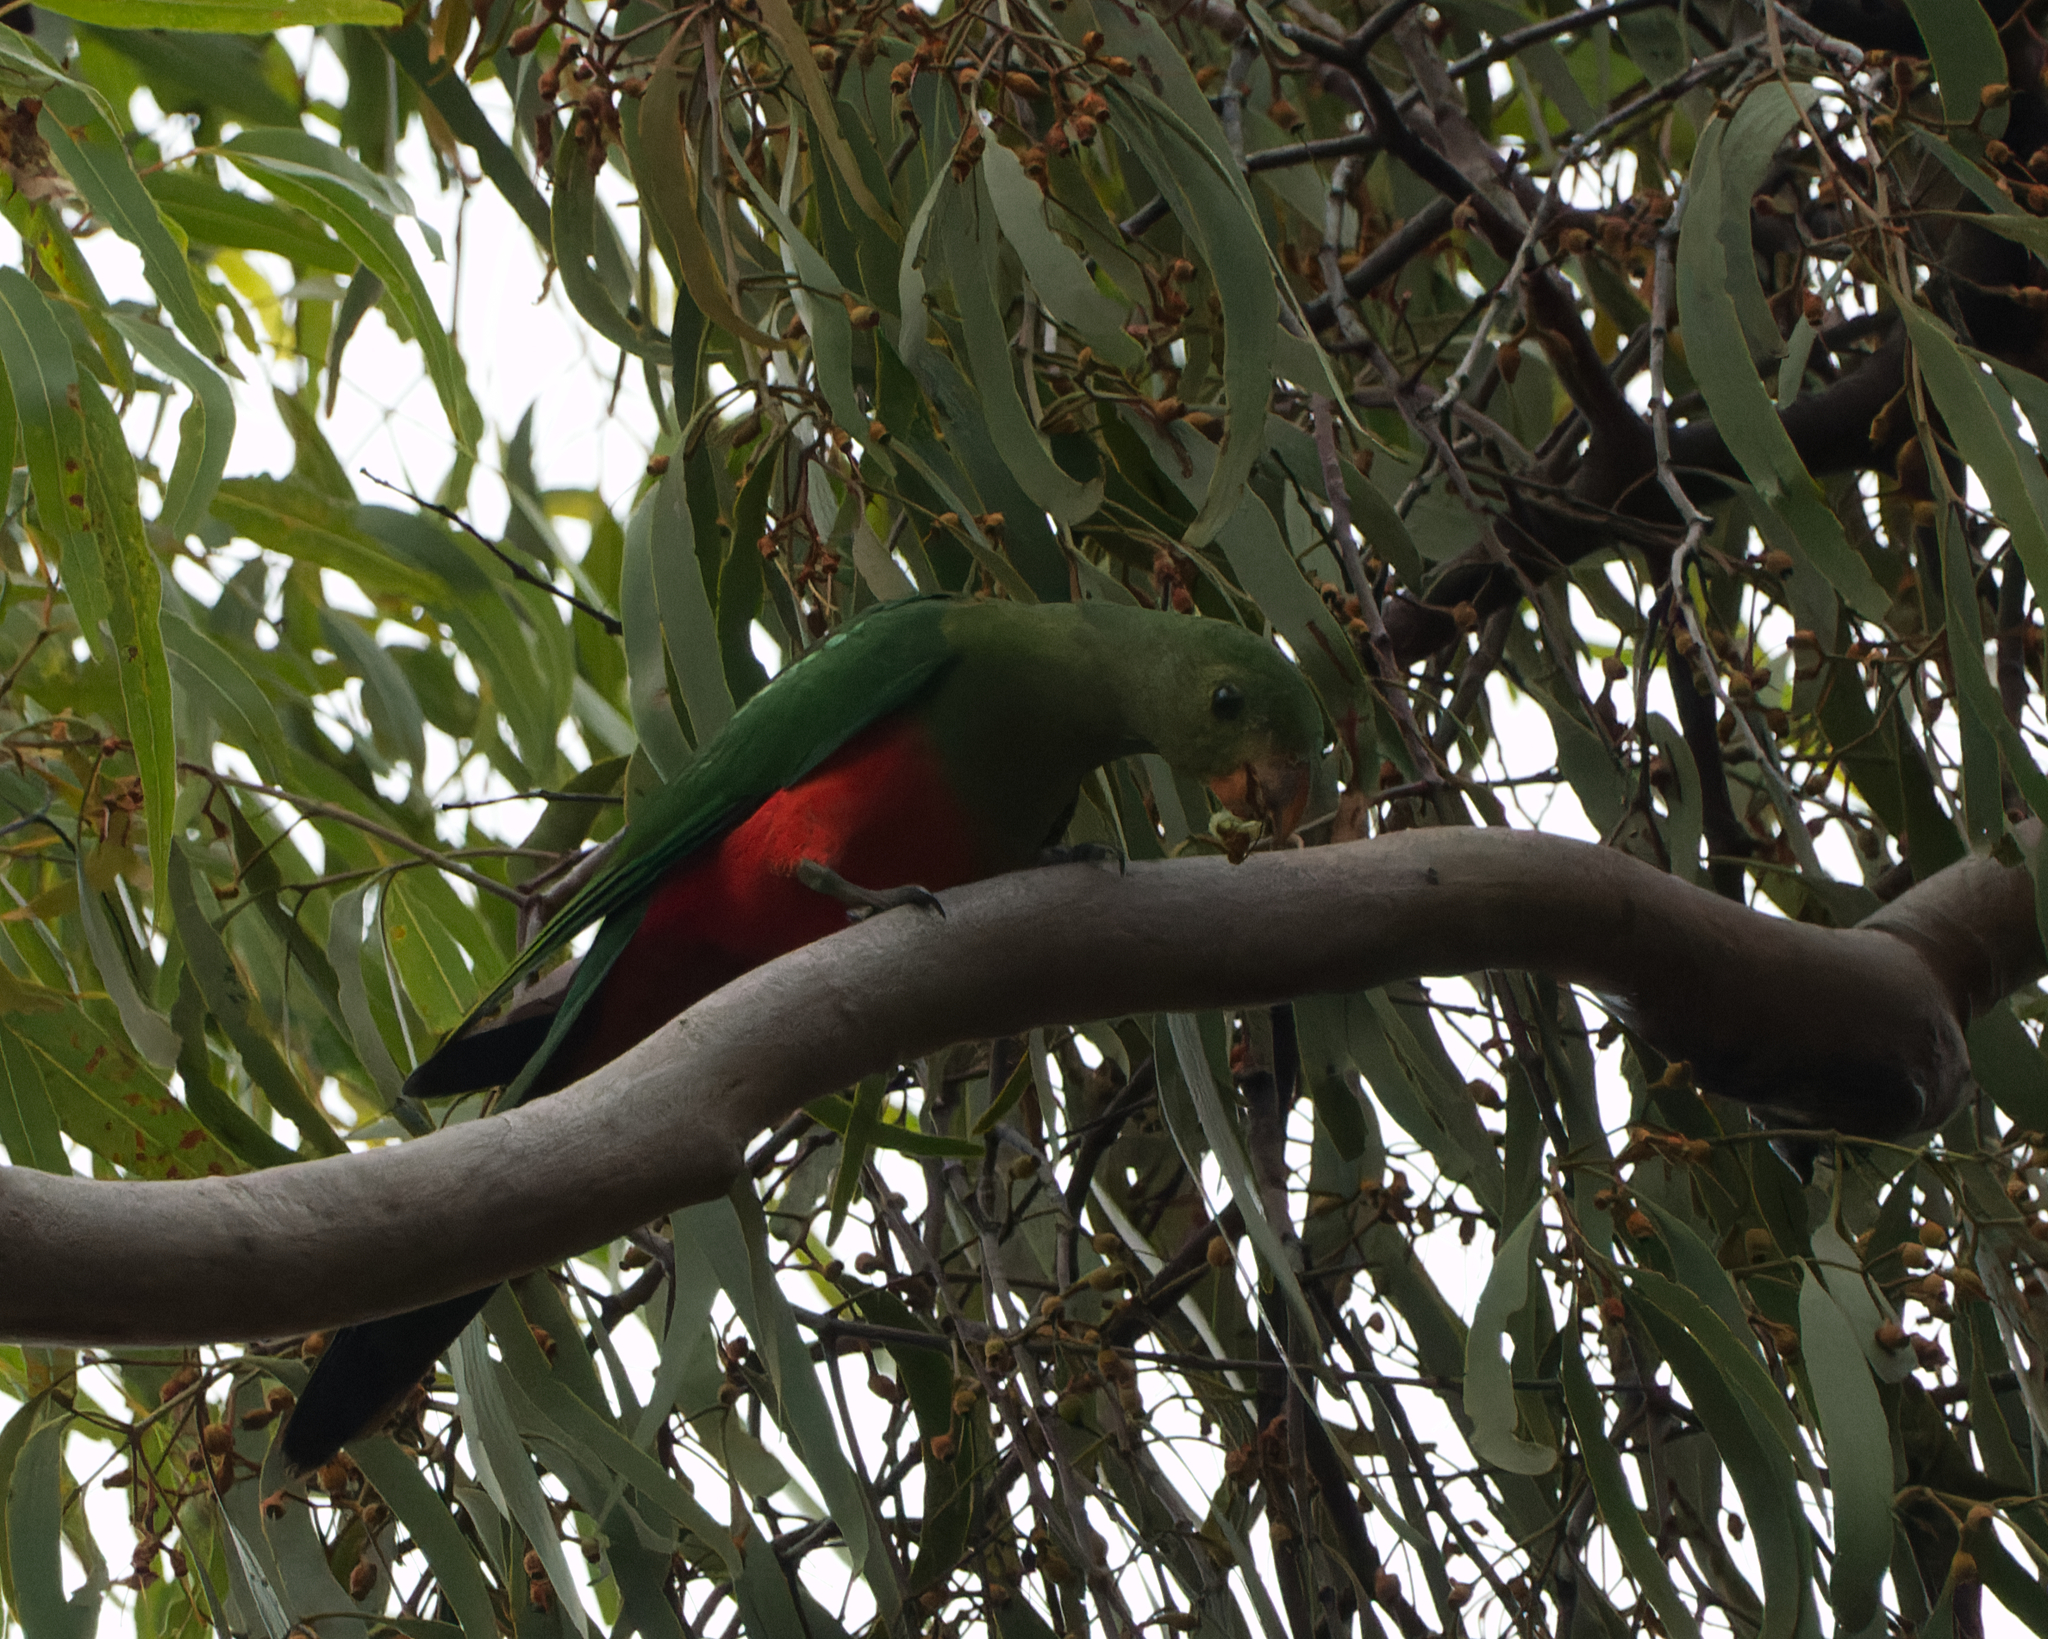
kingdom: Animalia
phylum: Chordata
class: Aves
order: Psittaciformes
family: Psittacidae
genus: Alisterus
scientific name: Alisterus scapularis
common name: Australian king parrot
